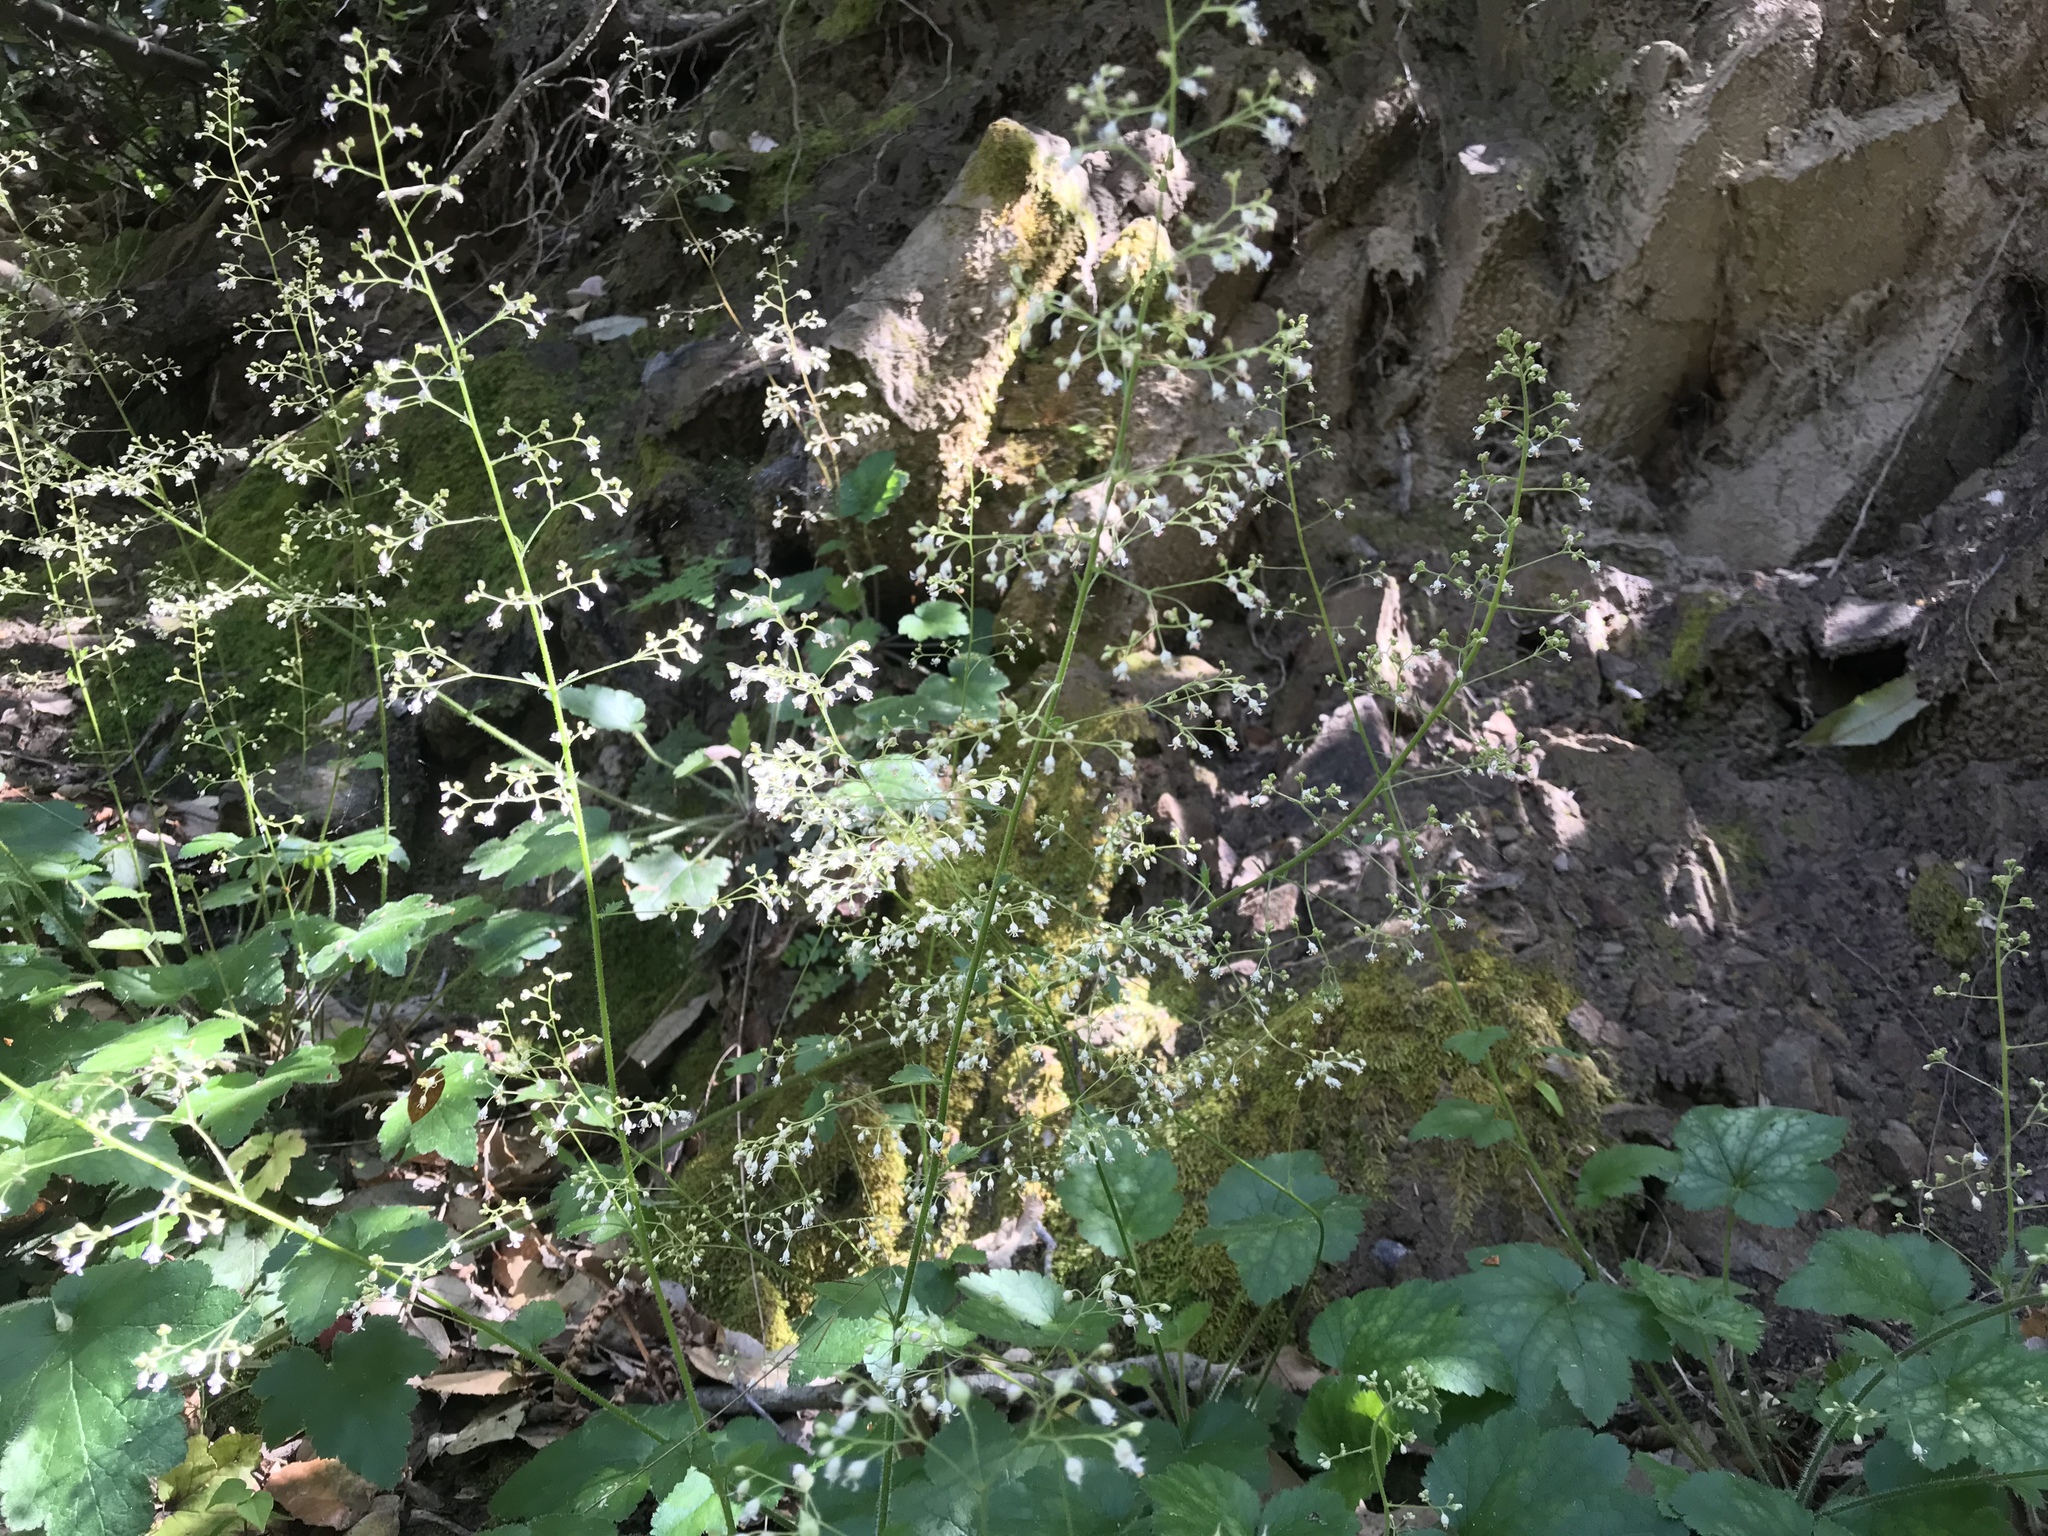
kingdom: Plantae
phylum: Tracheophyta
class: Magnoliopsida
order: Saxifragales
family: Saxifragaceae
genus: Heuchera
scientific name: Heuchera micrantha
